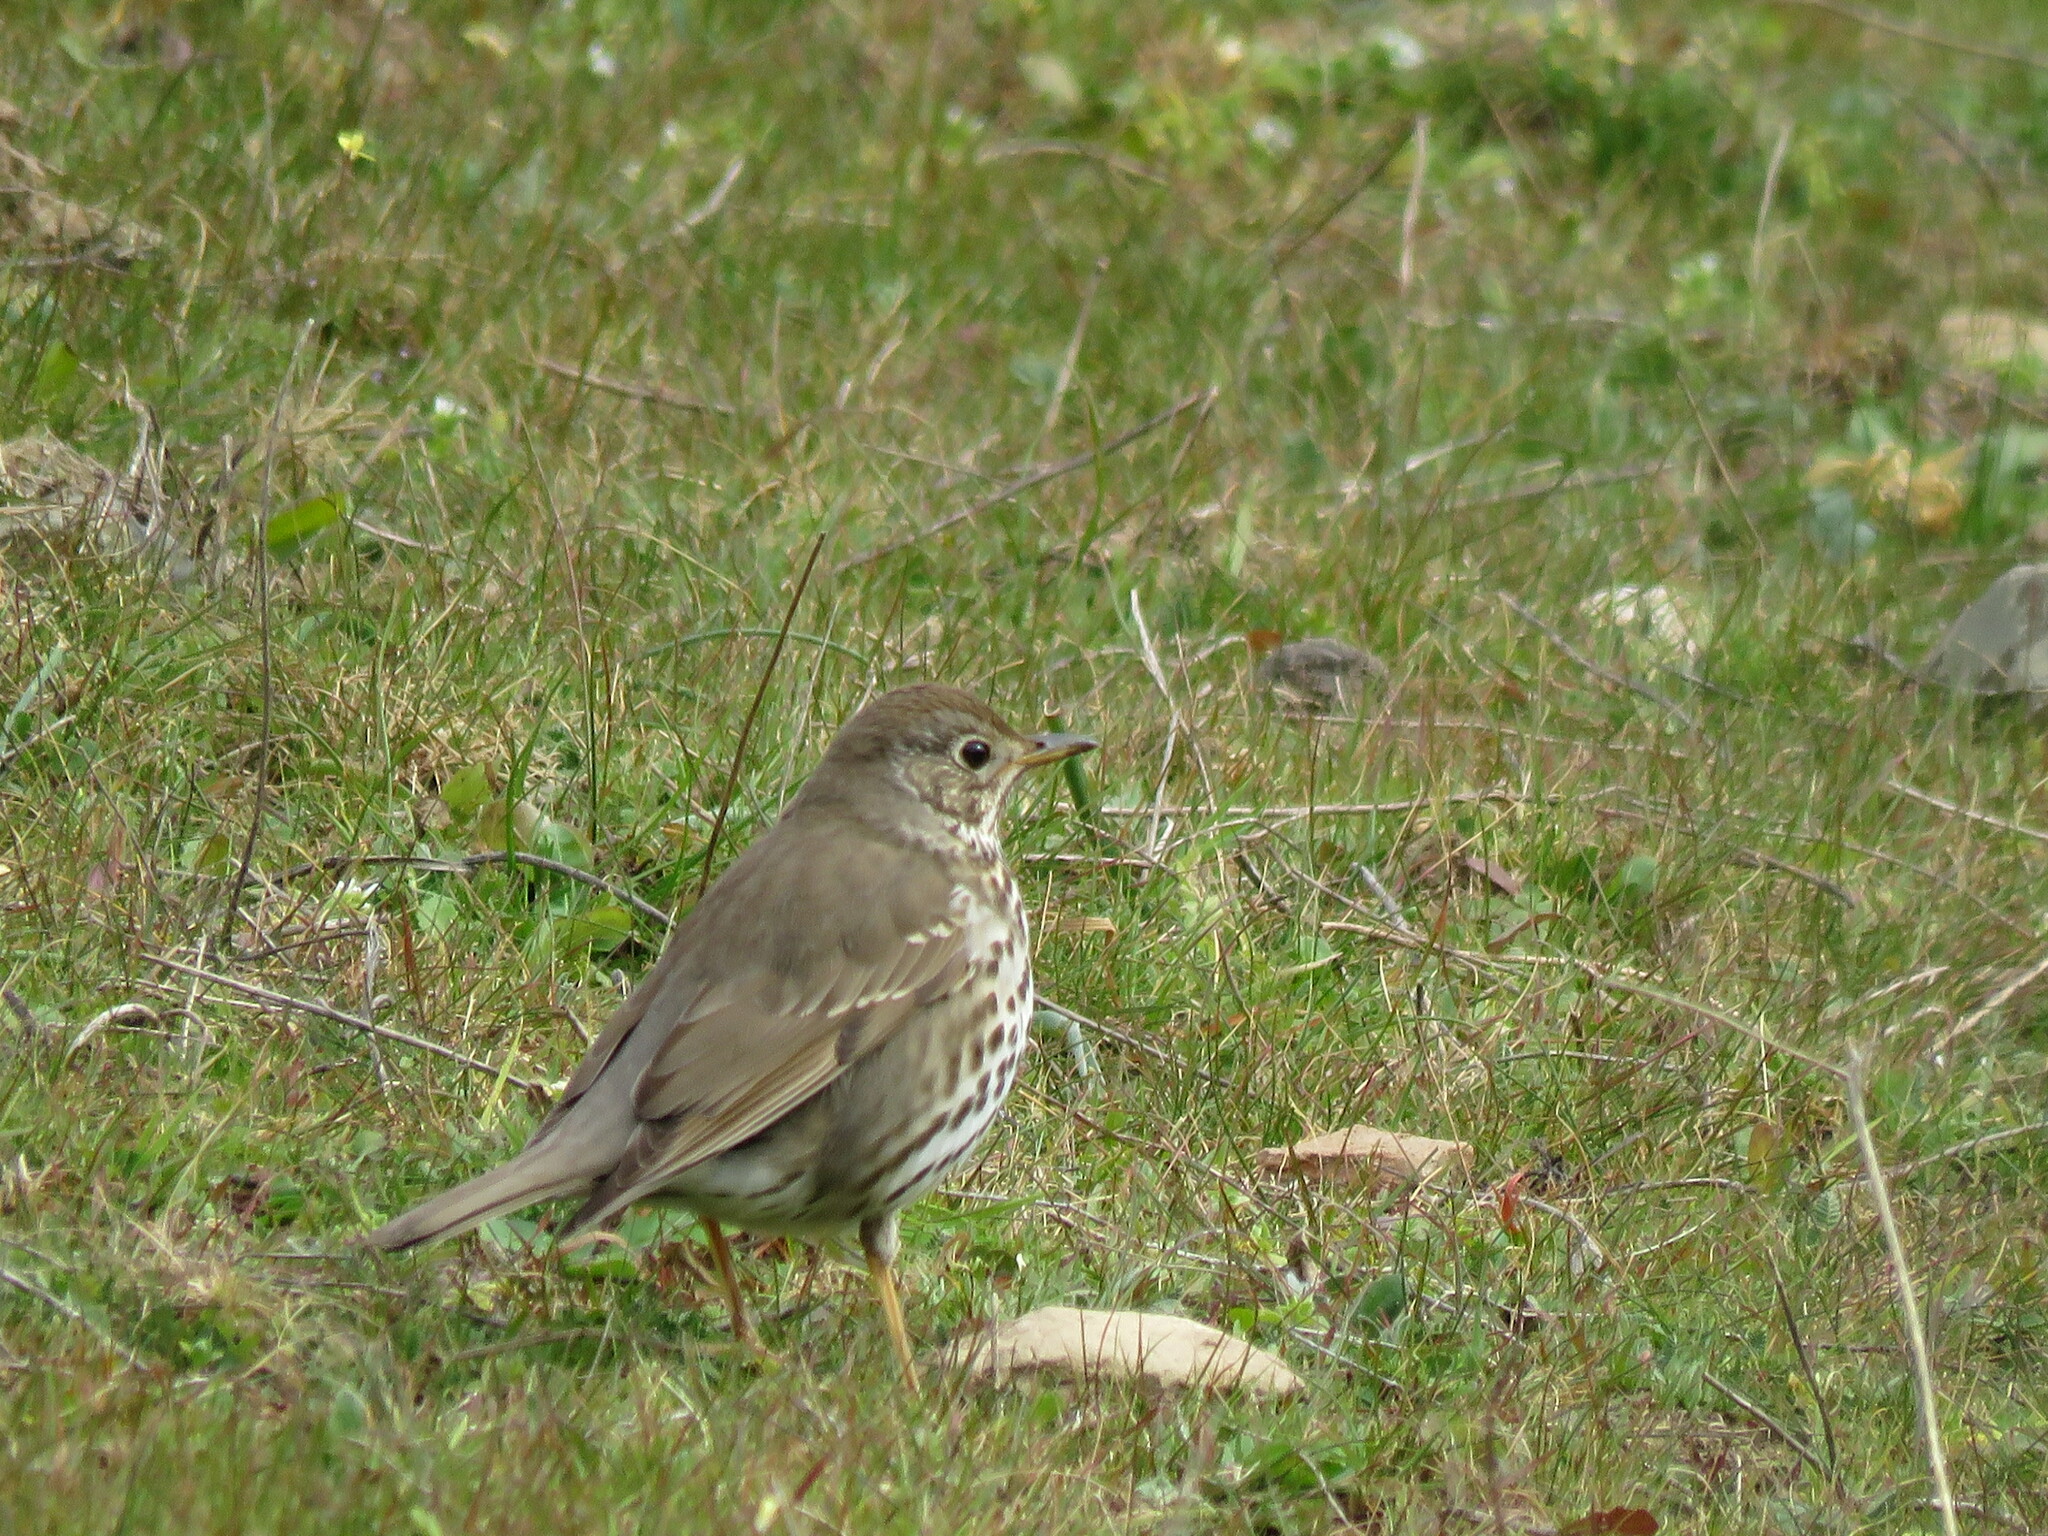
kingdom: Animalia
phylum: Chordata
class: Aves
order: Passeriformes
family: Turdidae
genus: Turdus
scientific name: Turdus philomelos
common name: Song thrush
